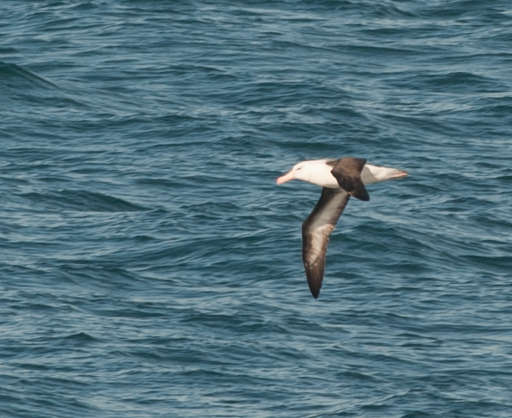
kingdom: Animalia
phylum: Chordata
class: Aves
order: Procellariiformes
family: Diomedeidae
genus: Thalassarche
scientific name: Thalassarche melanophris
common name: Black-browed albatross
